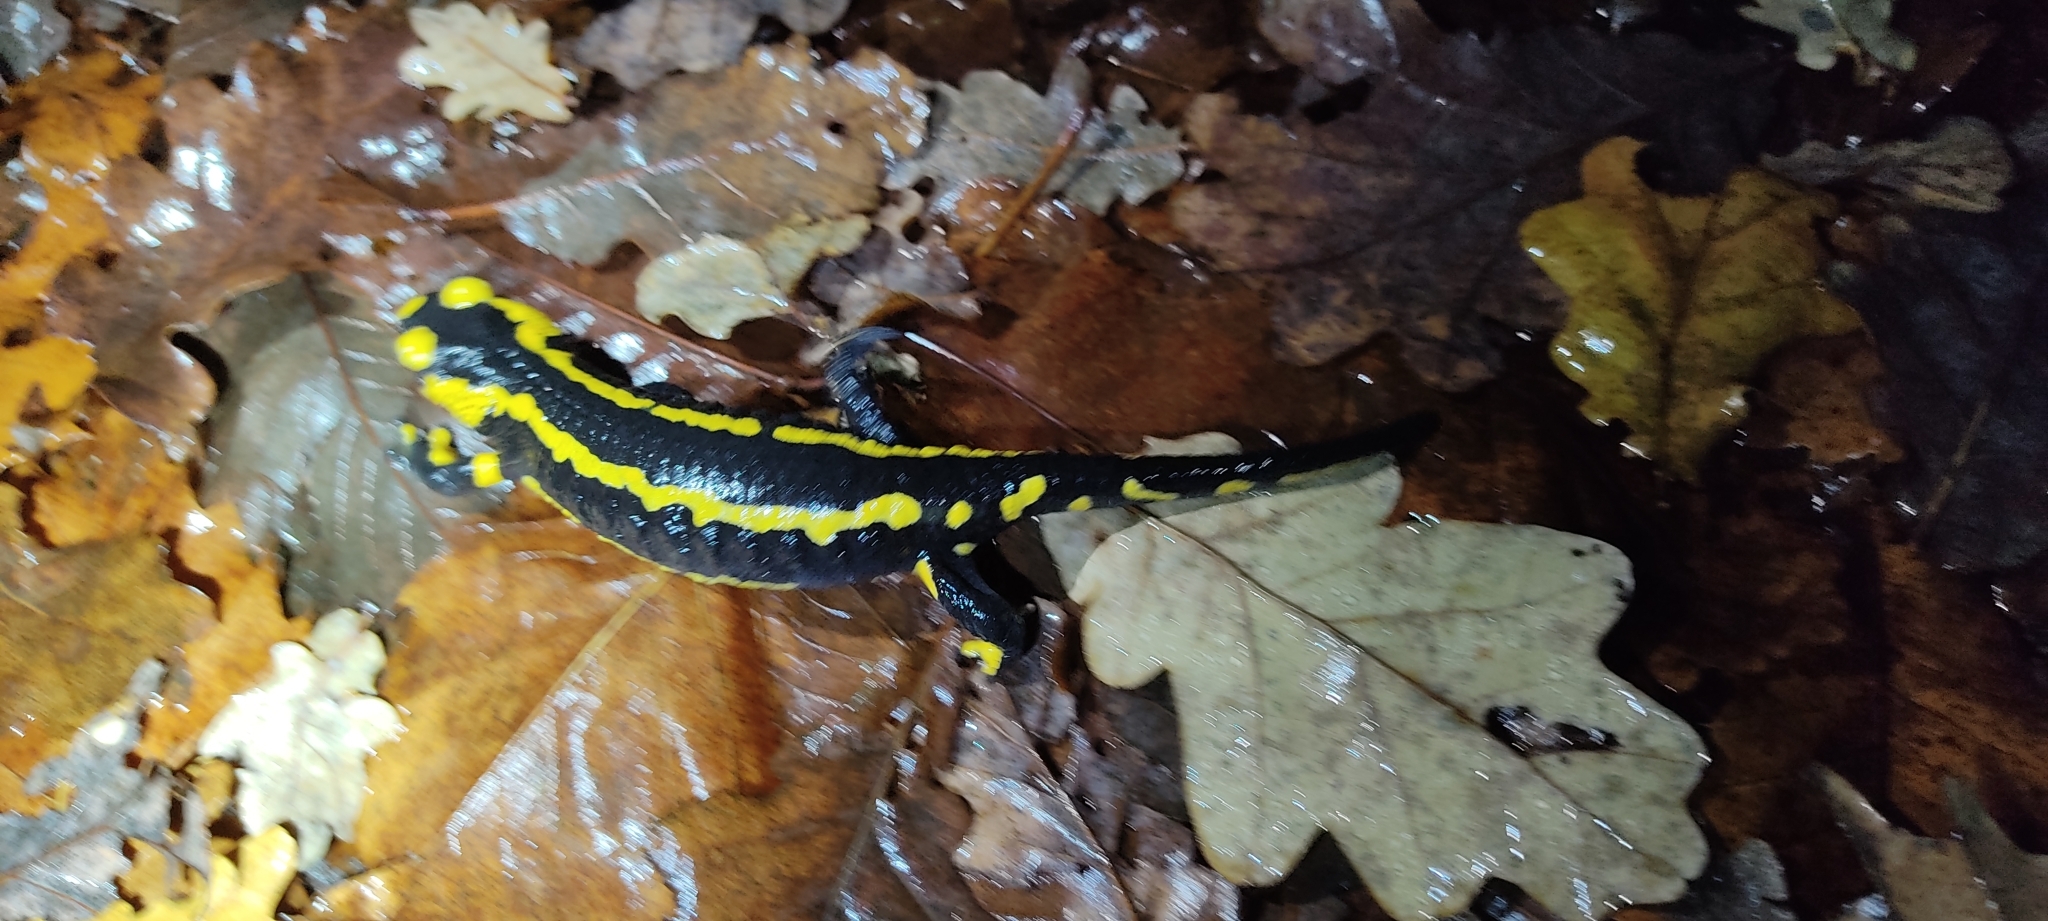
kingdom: Animalia
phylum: Chordata
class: Amphibia
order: Caudata
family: Salamandridae
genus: Salamandra
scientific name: Salamandra salamandra
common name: Fire salamander
